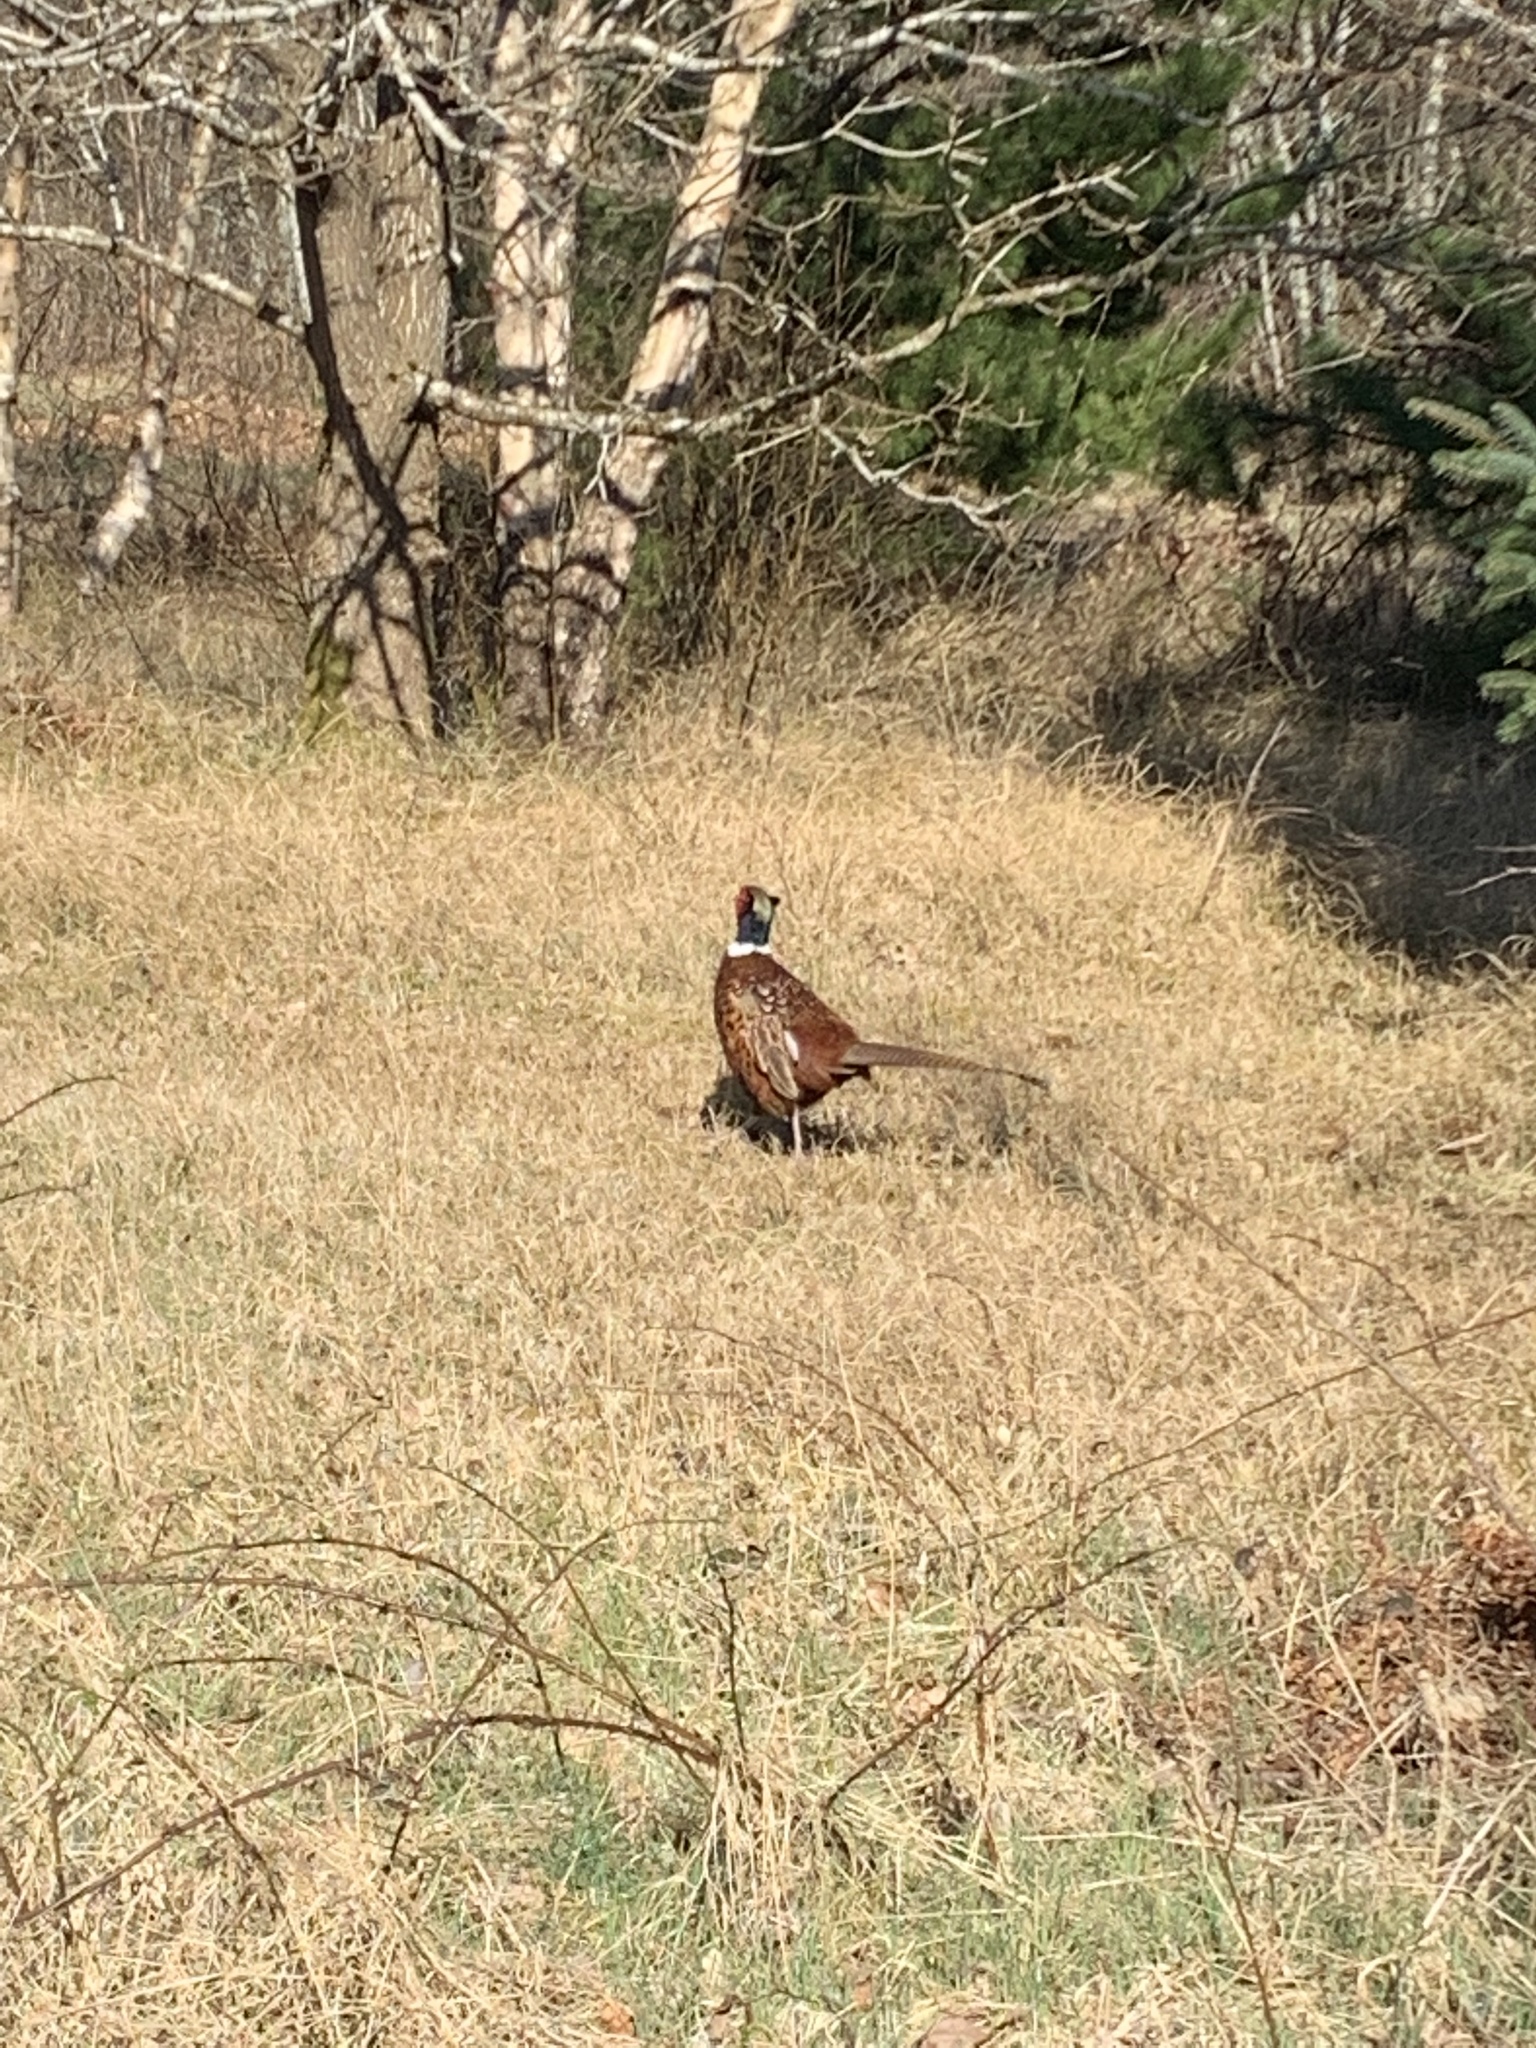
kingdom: Animalia
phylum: Chordata
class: Aves
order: Galliformes
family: Phasianidae
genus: Phasianus
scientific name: Phasianus colchicus
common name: Common pheasant
